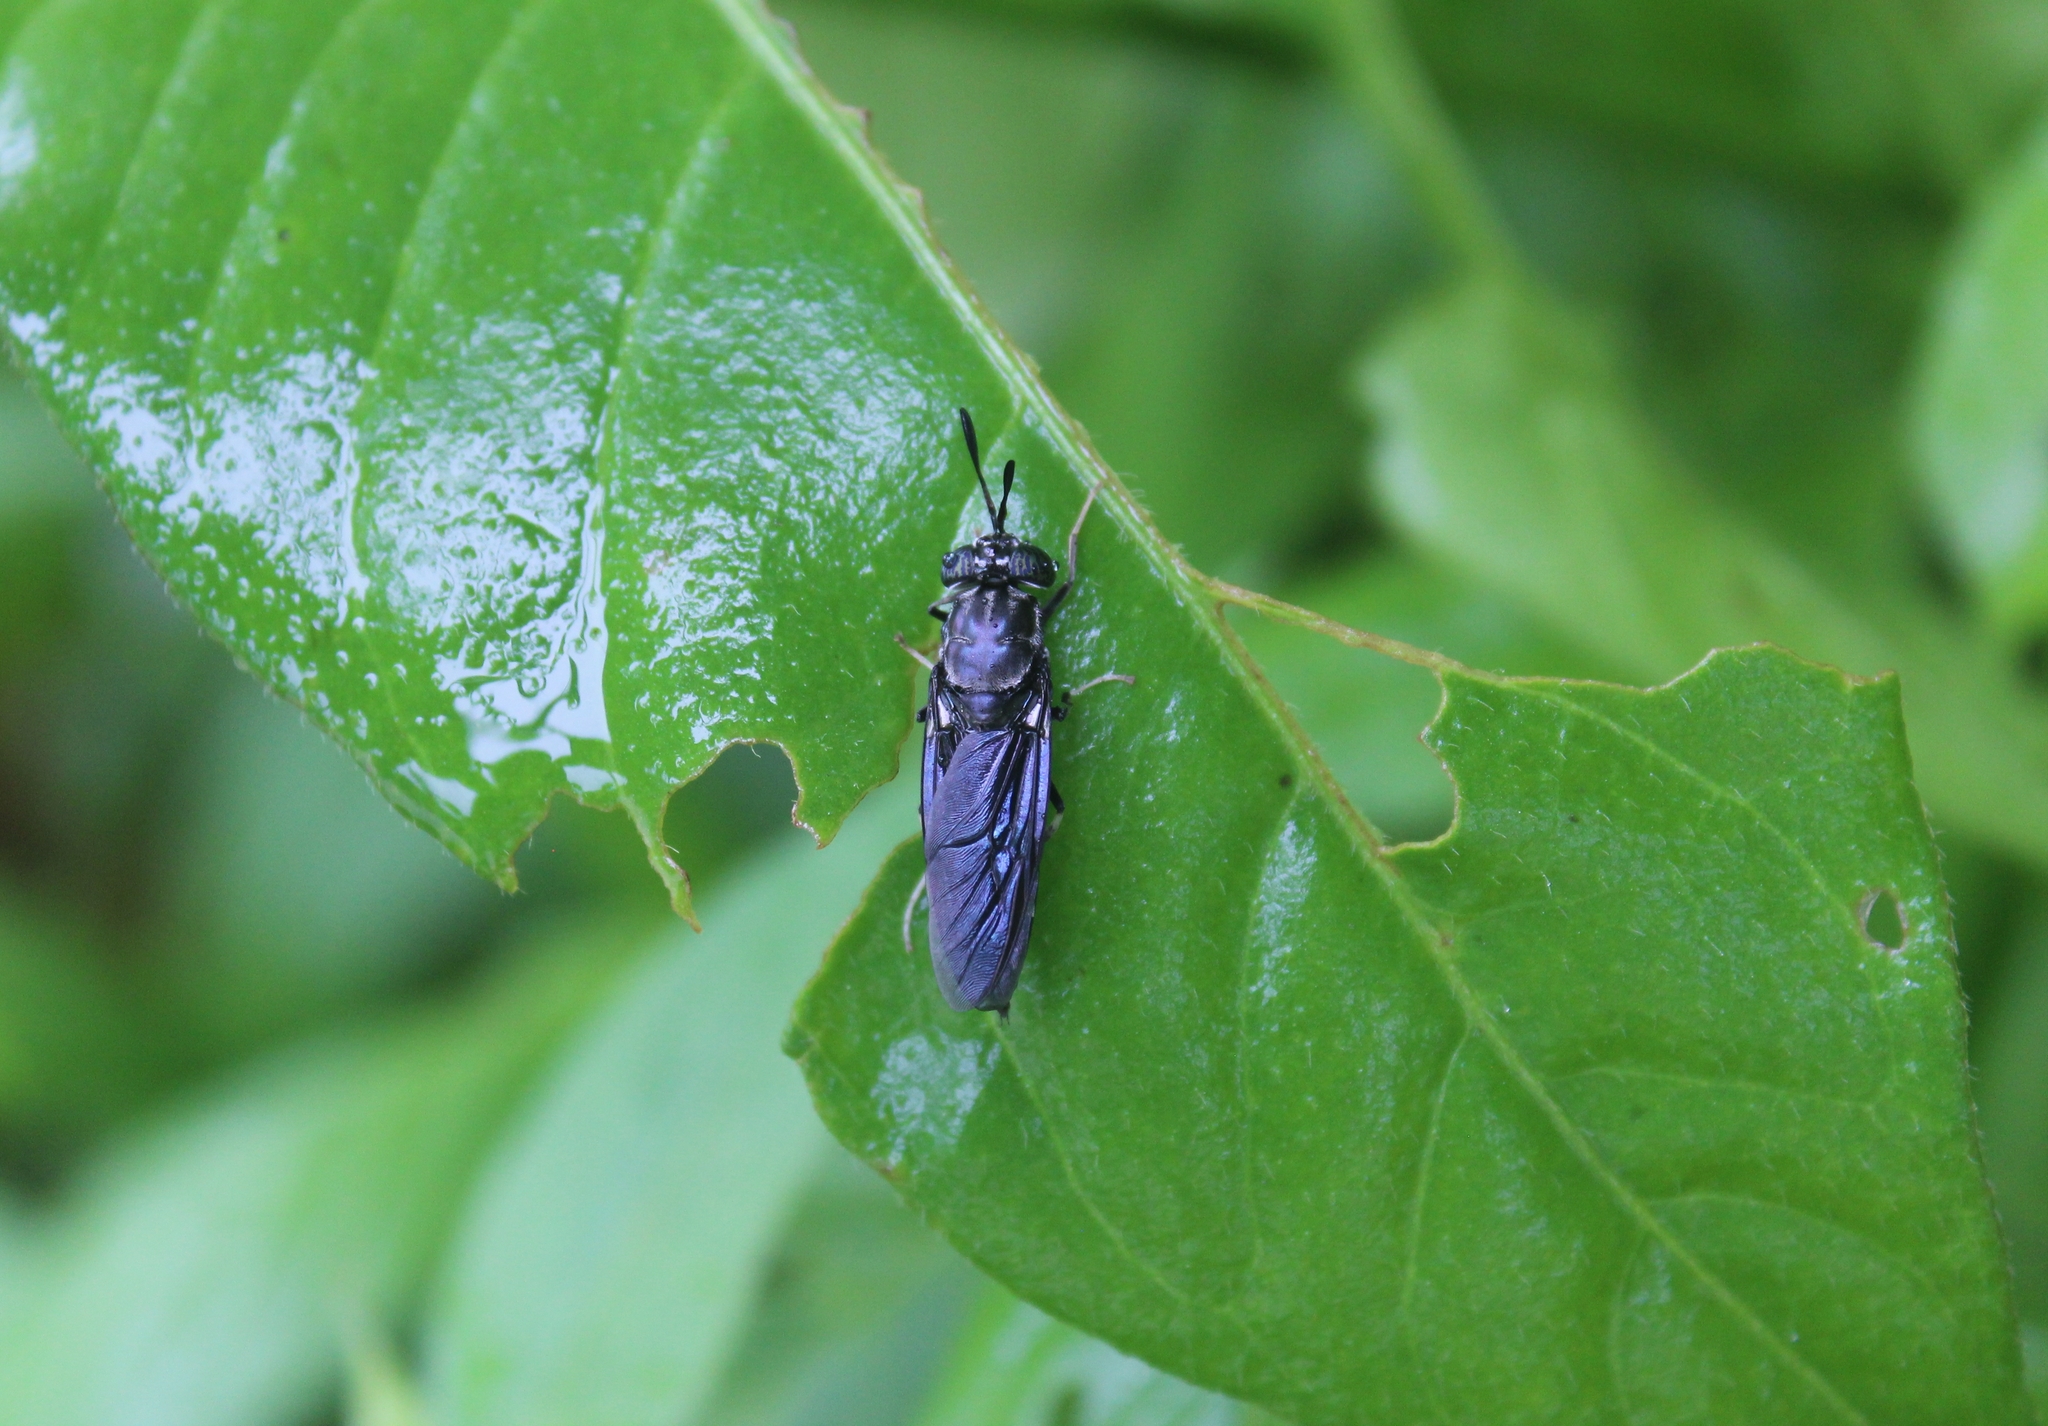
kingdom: Animalia
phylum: Arthropoda
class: Insecta
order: Diptera
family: Stratiomyidae
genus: Hermetia
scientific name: Hermetia illucens
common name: Black soldier fly
